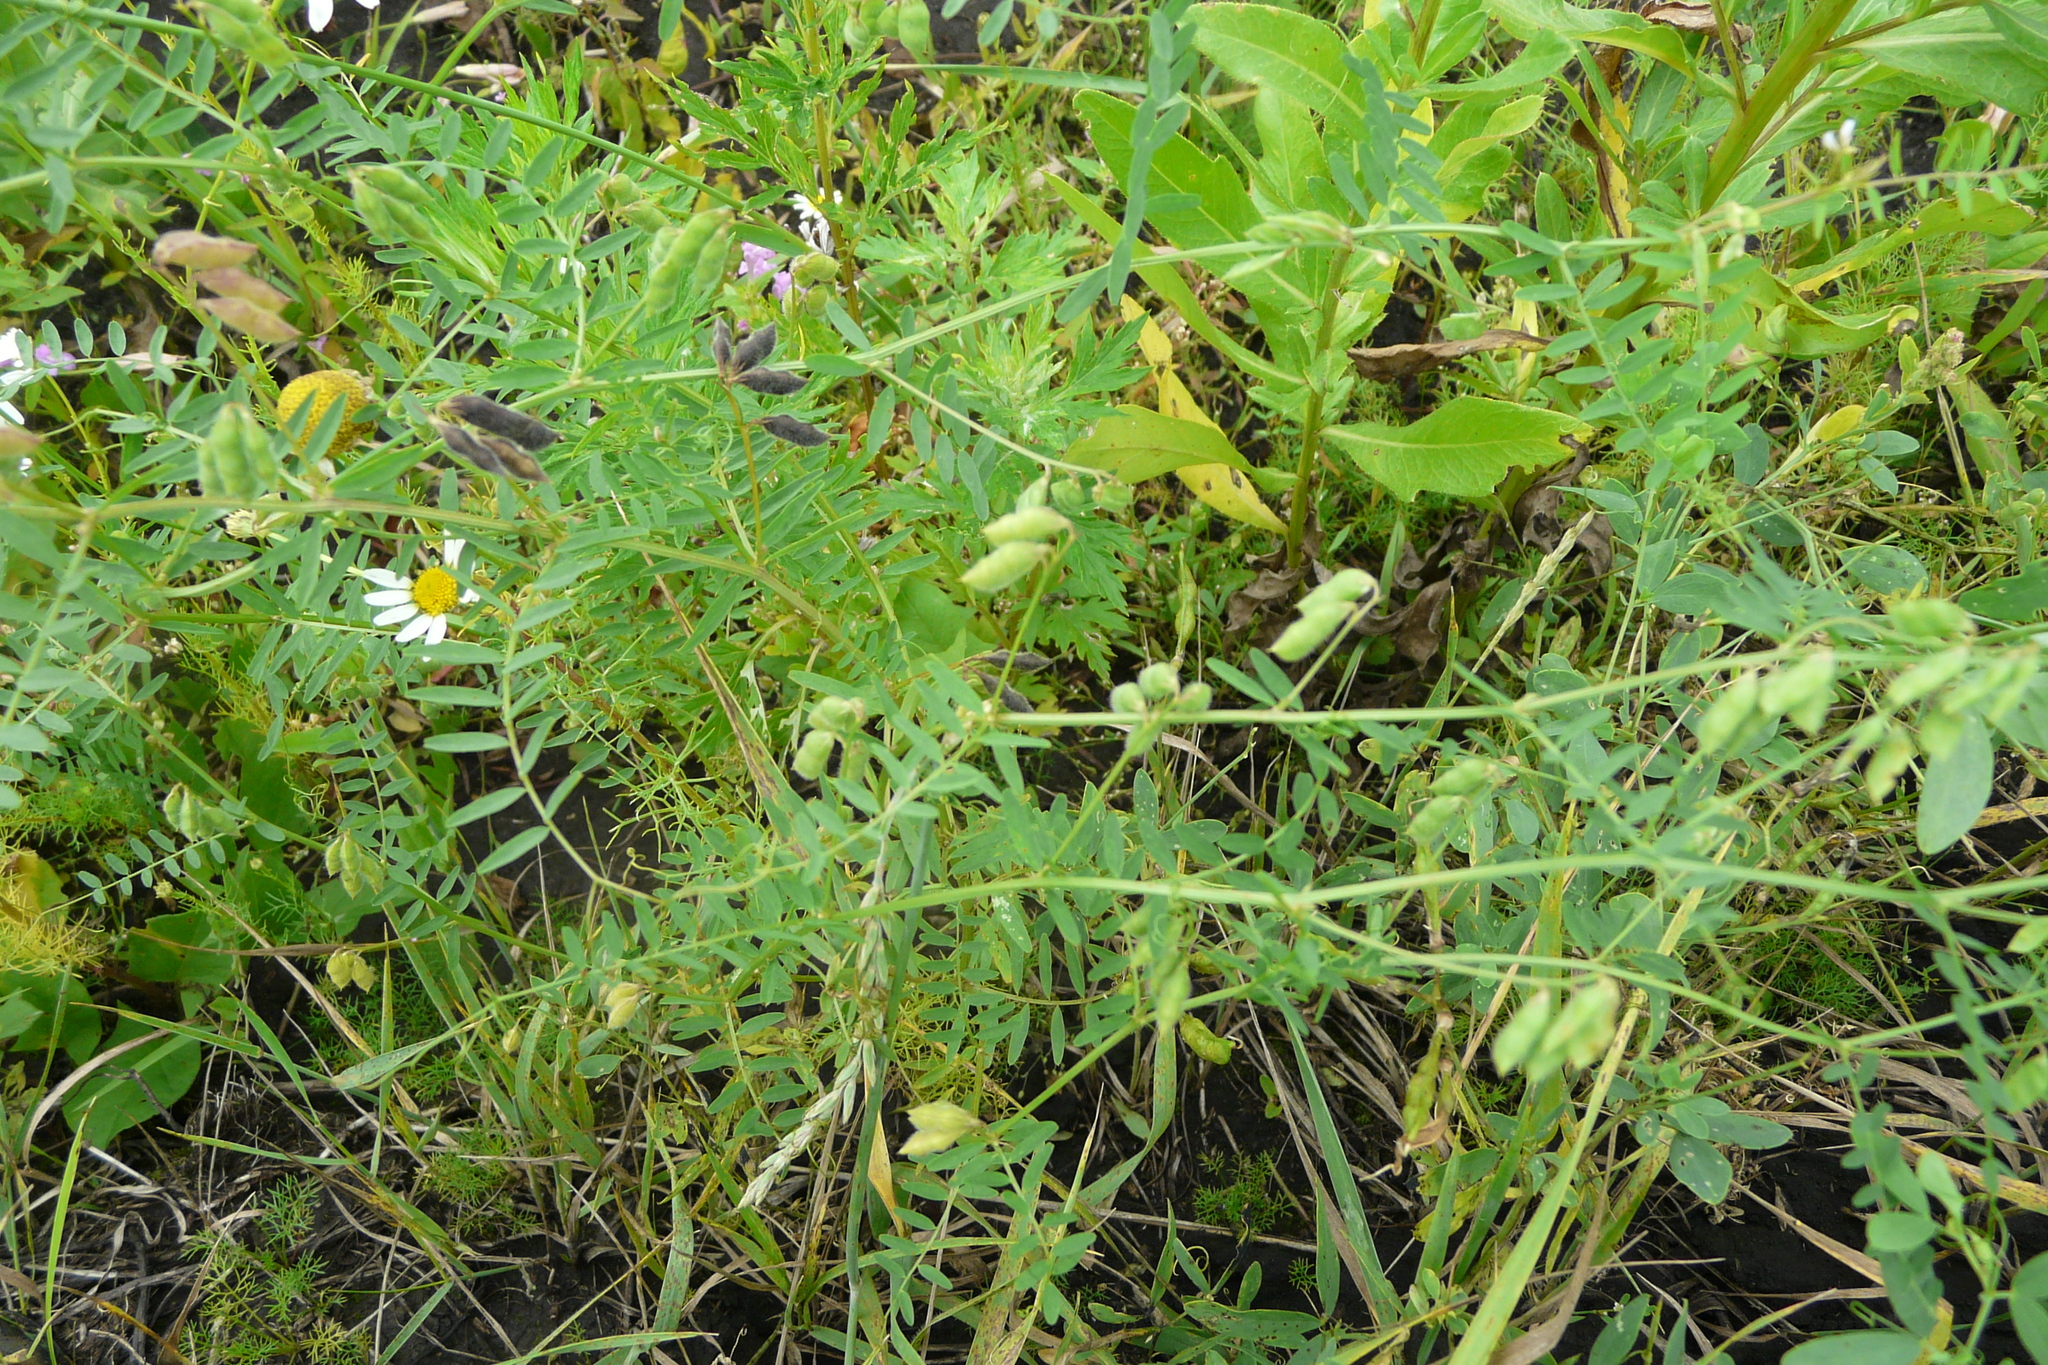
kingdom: Plantae
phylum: Tracheophyta
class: Magnoliopsida
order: Fabales
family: Fabaceae
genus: Vicia
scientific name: Vicia hirsuta
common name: Tiny vetch
